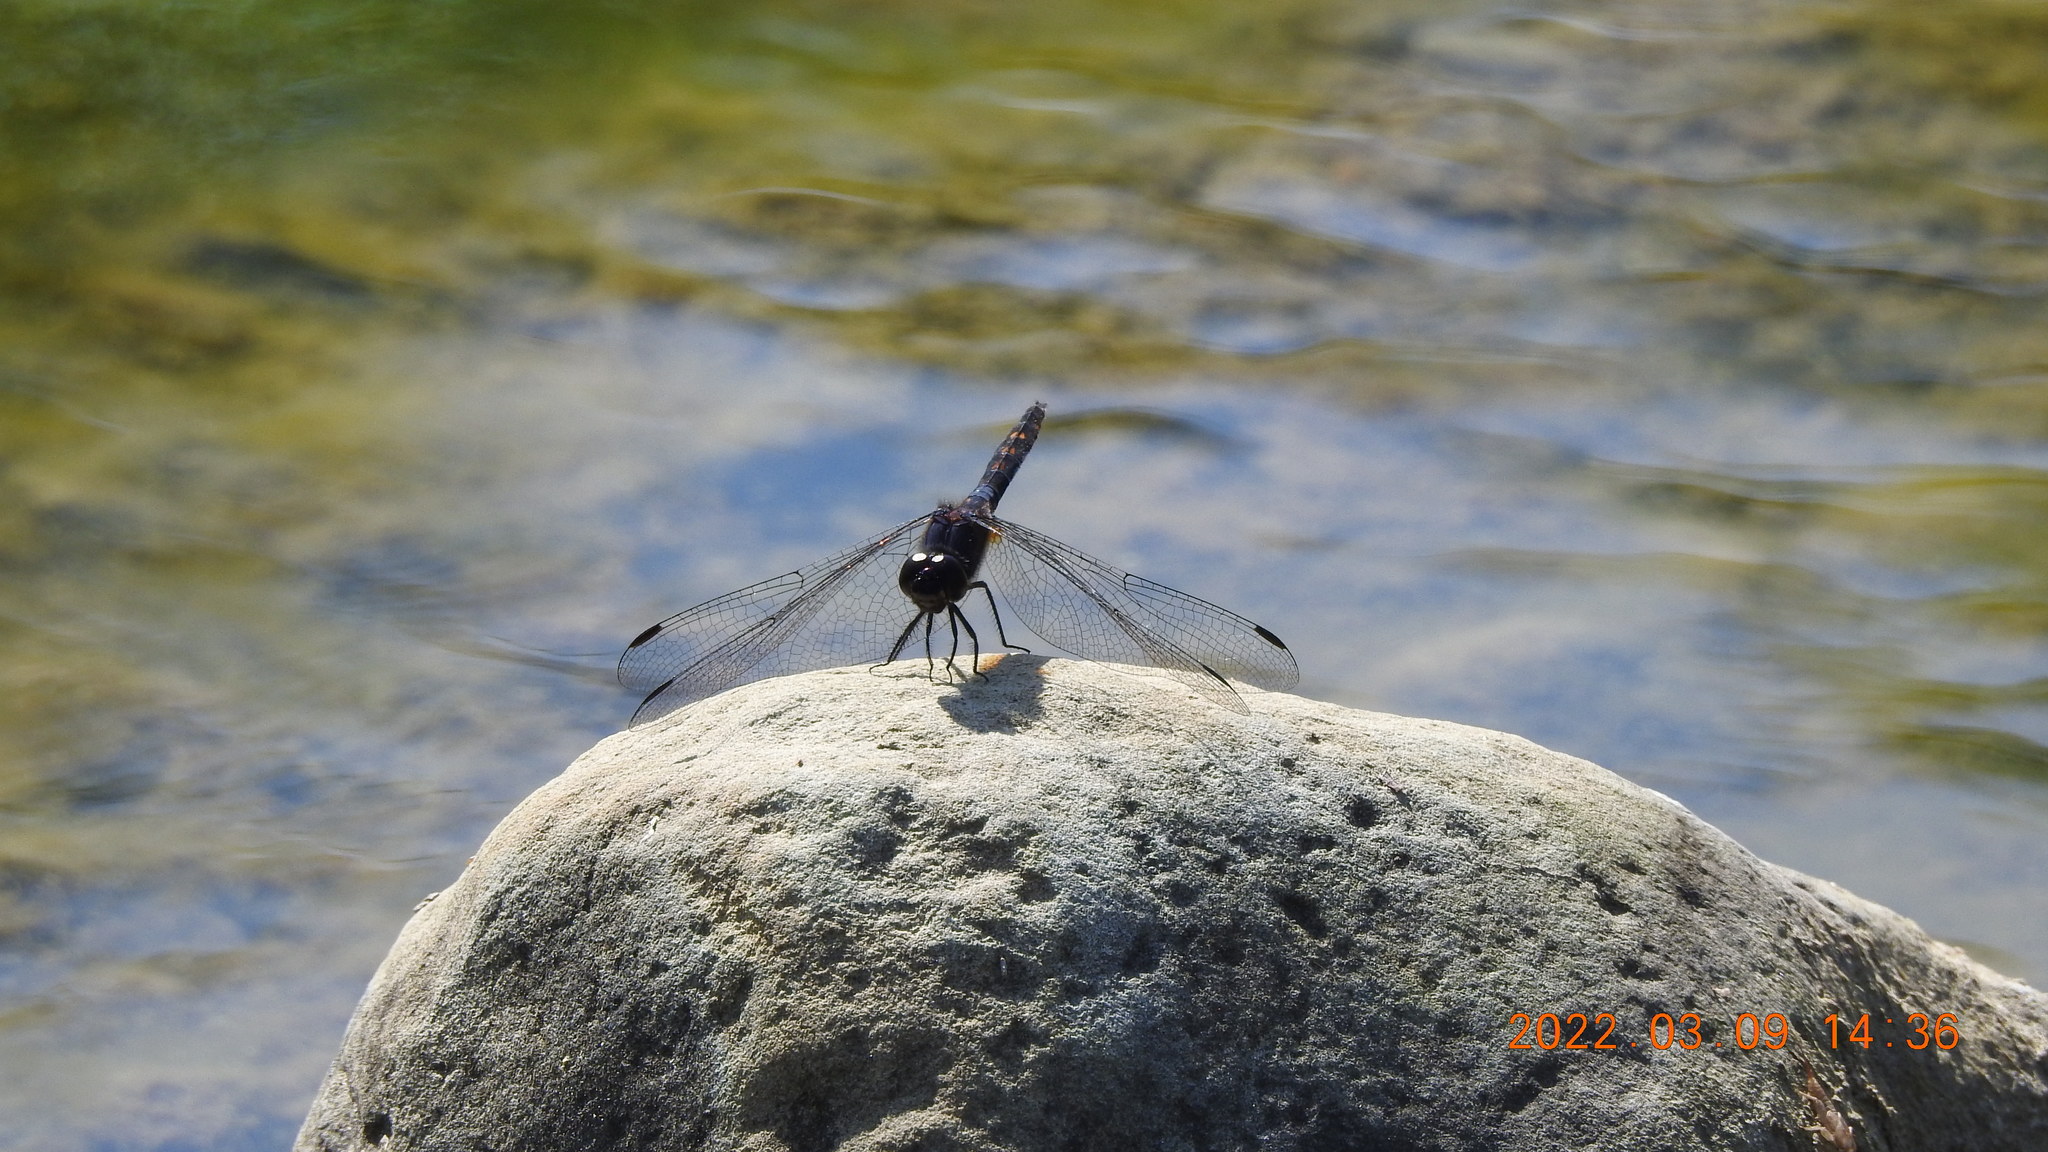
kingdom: Animalia
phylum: Arthropoda
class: Insecta
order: Odonata
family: Libellulidae
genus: Trithemis
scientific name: Trithemis festiva
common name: Indigo dropwing
